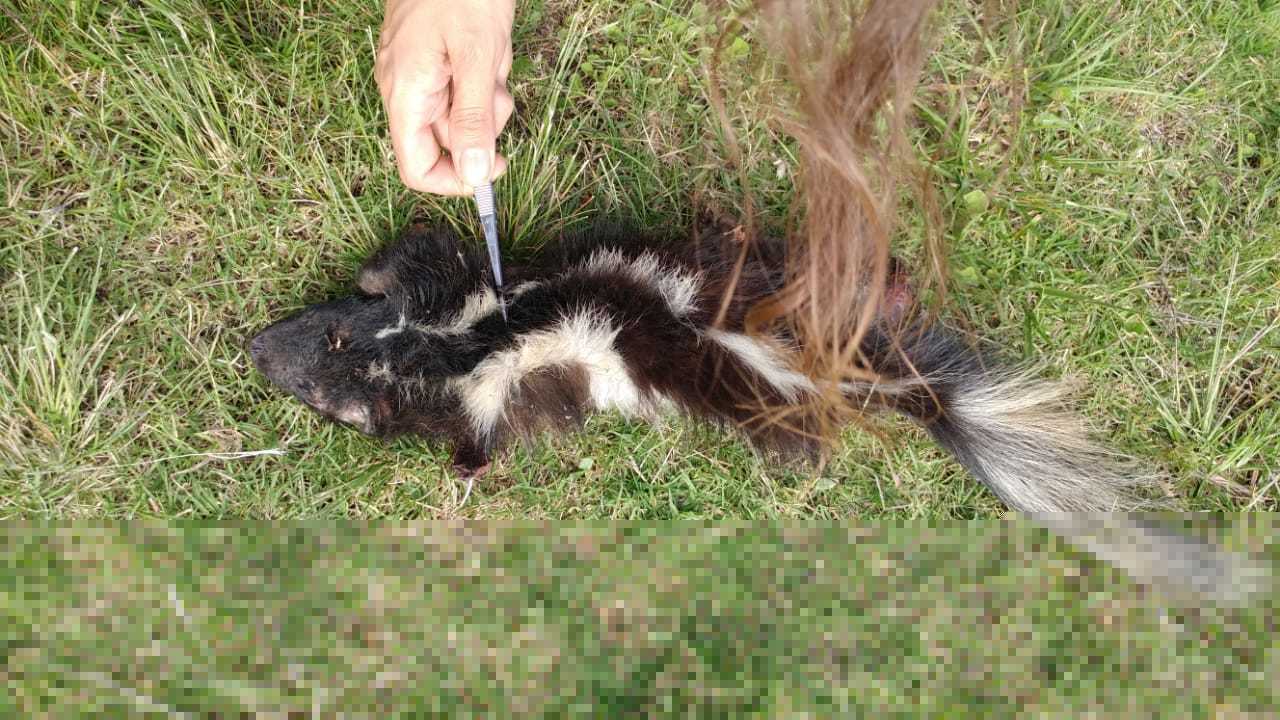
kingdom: Animalia
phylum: Chordata
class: Mammalia
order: Carnivora
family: Mephitidae
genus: Conepatus
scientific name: Conepatus chinga
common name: Molina's hog-nosed skunk
